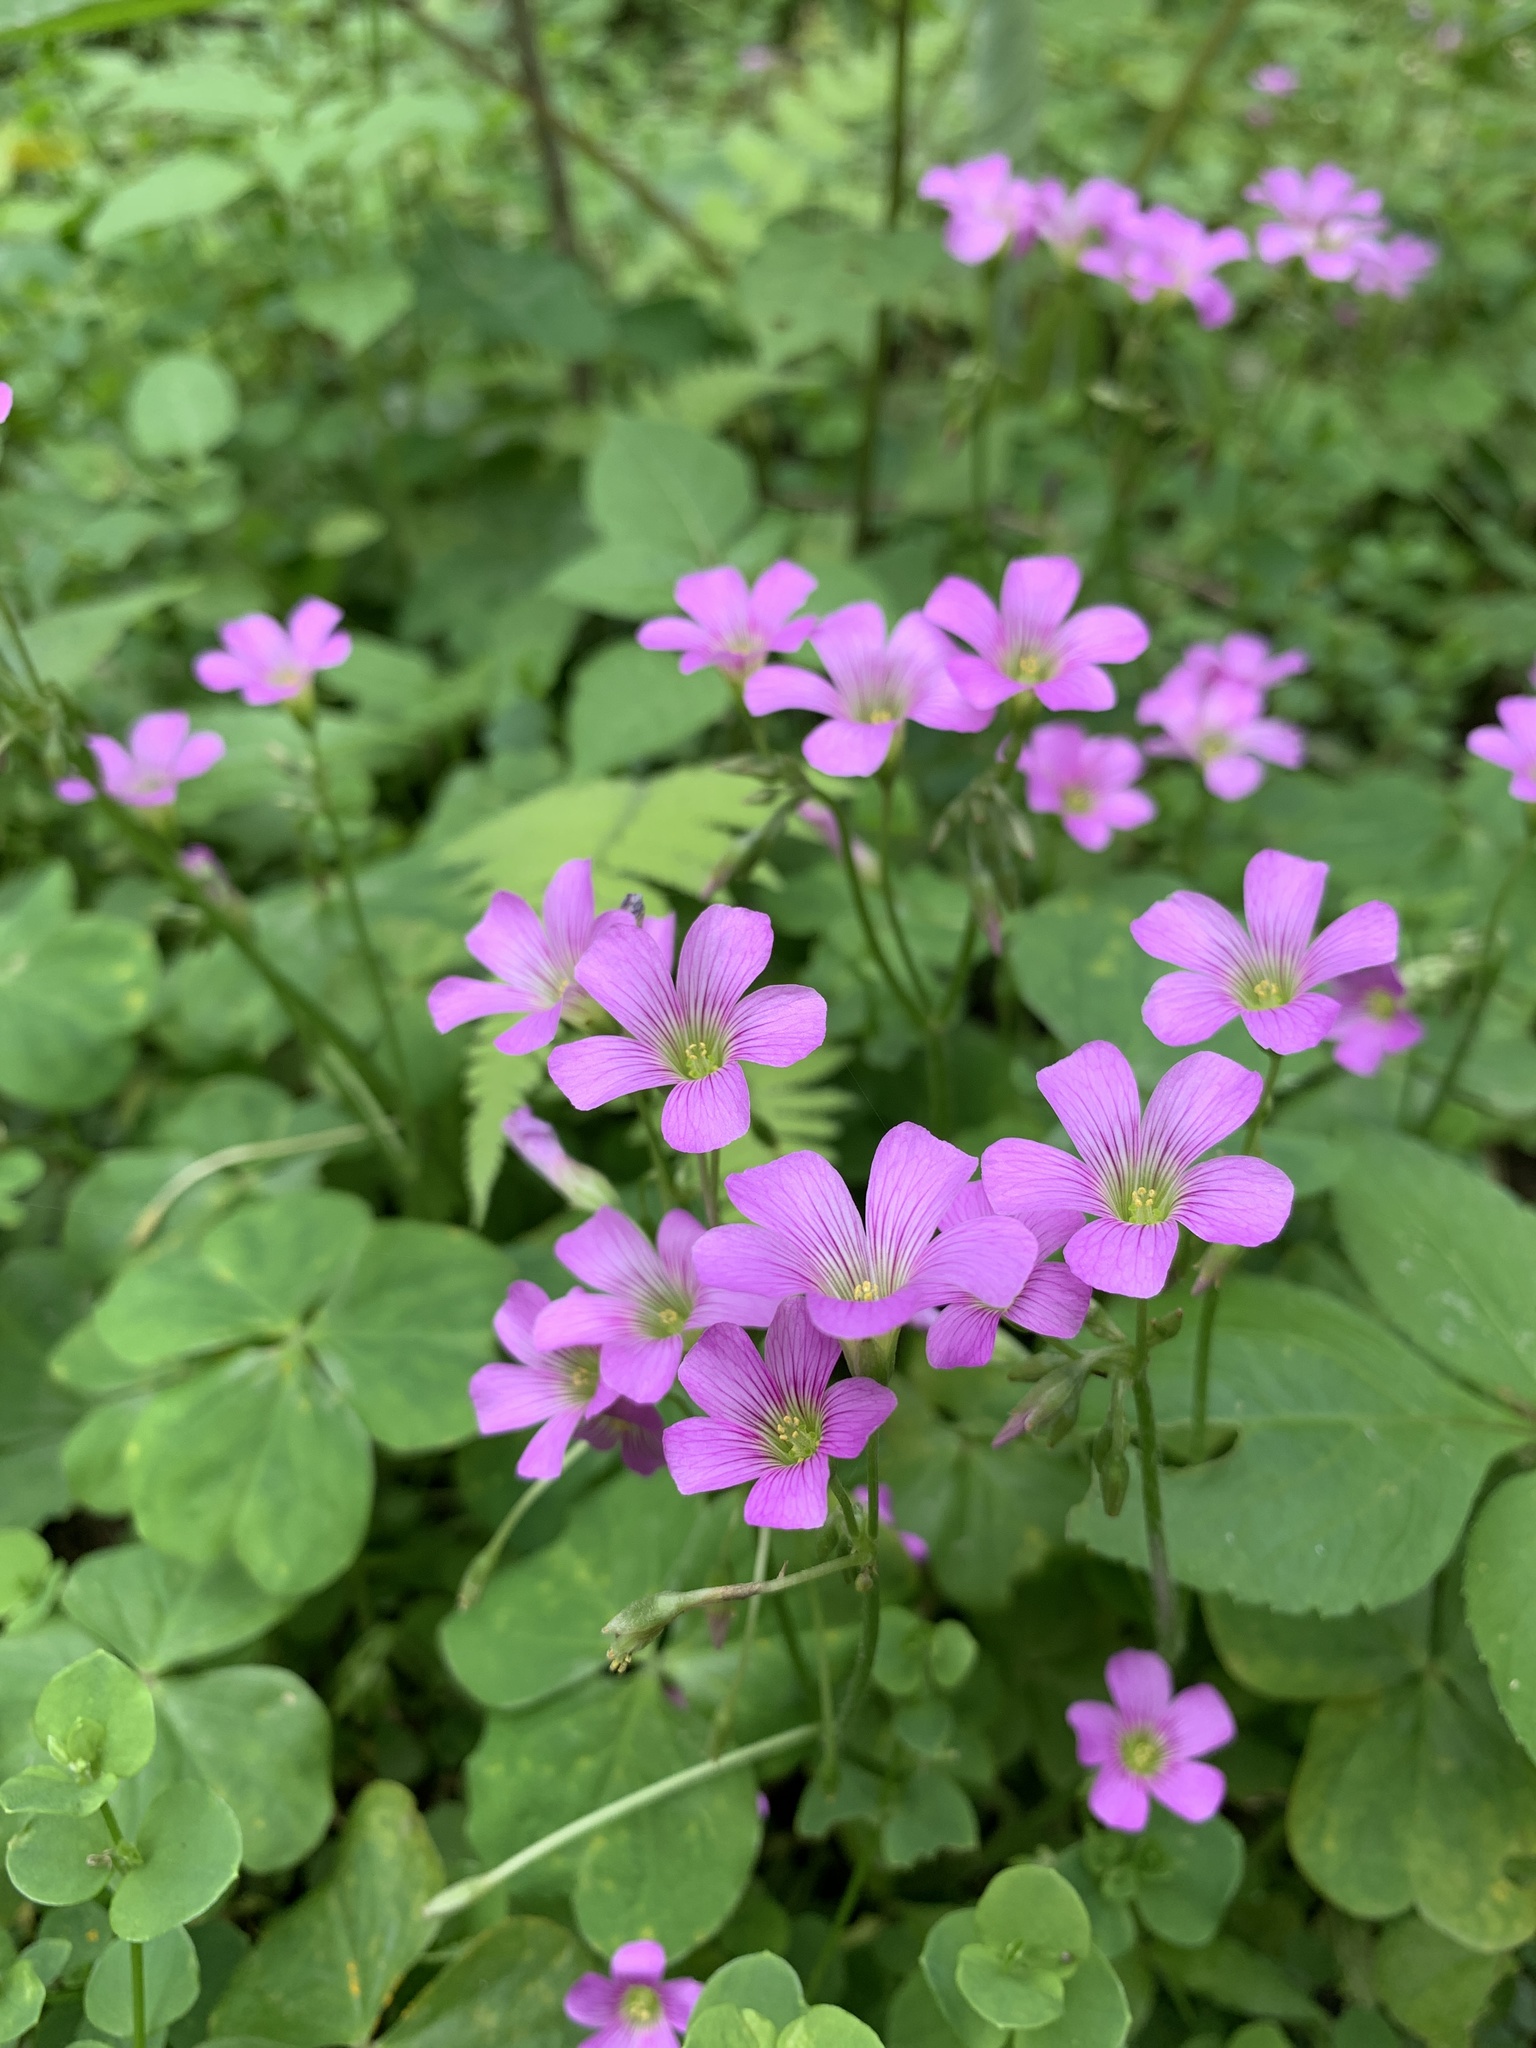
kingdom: Plantae
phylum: Tracheophyta
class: Magnoliopsida
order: Oxalidales
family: Oxalidaceae
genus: Oxalis
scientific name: Oxalis debilis
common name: Large-flowered pink-sorrel
